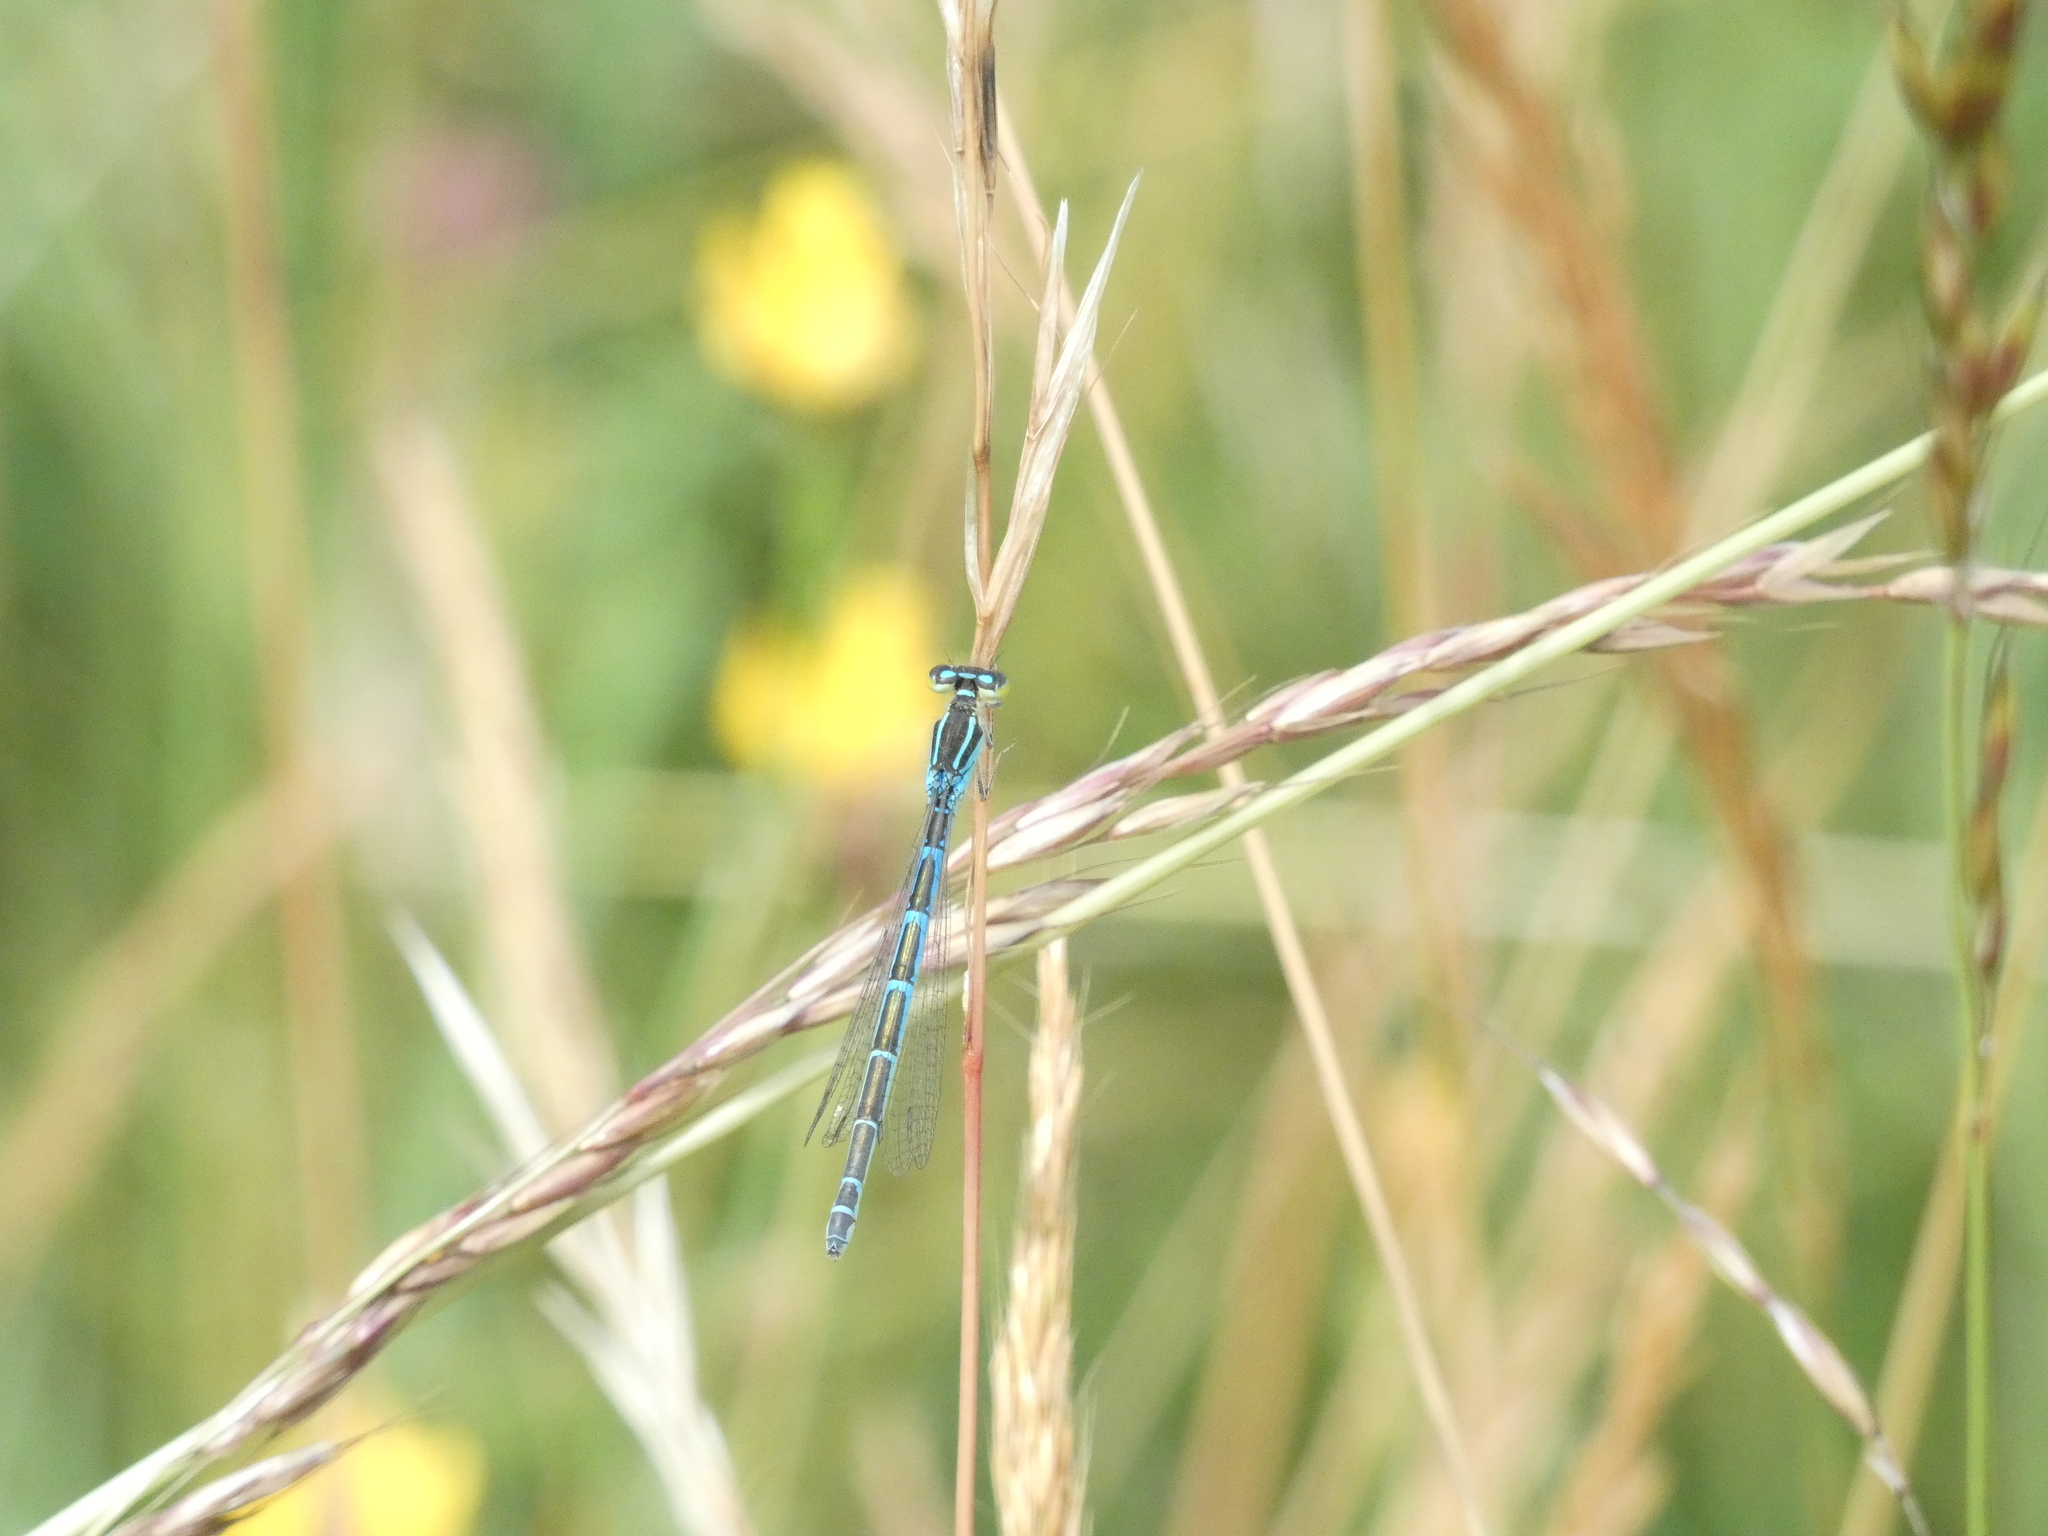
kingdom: Animalia
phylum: Arthropoda
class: Insecta
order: Odonata
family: Coenagrionidae
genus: Coenagrion
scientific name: Coenagrion scitulum
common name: Dainty bluet
